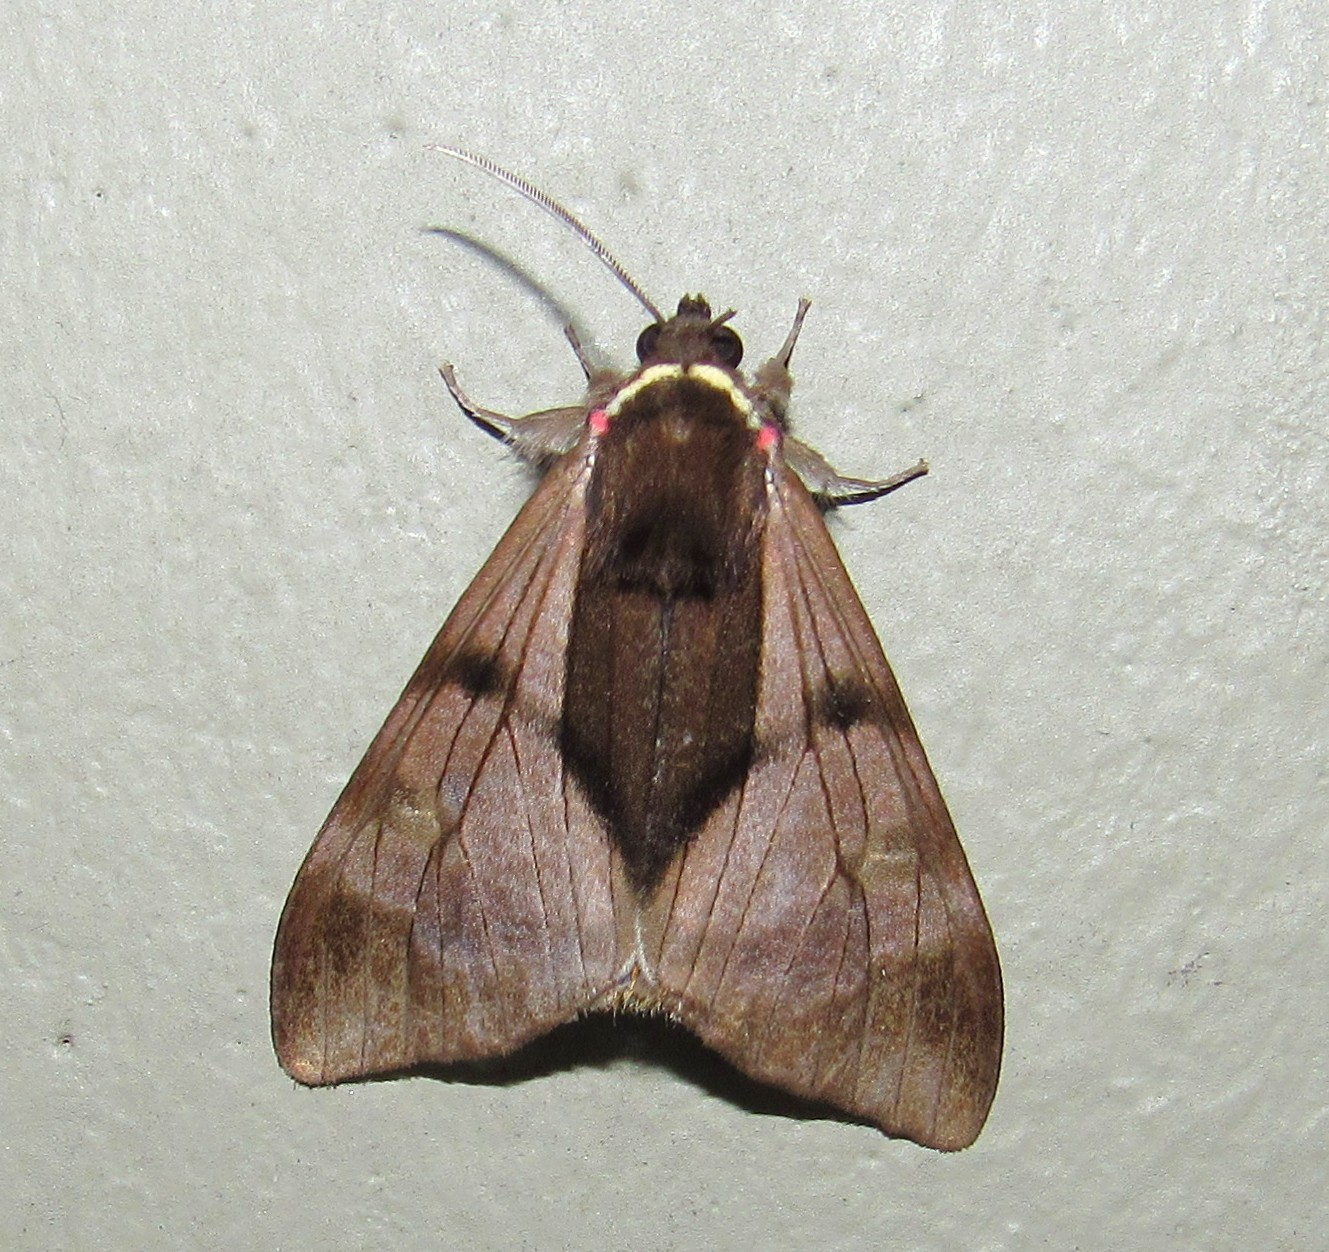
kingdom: Animalia
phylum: Arthropoda
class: Insecta
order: Lepidoptera
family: Erebidae
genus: Dysschema
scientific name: Dysschema subapicalis
